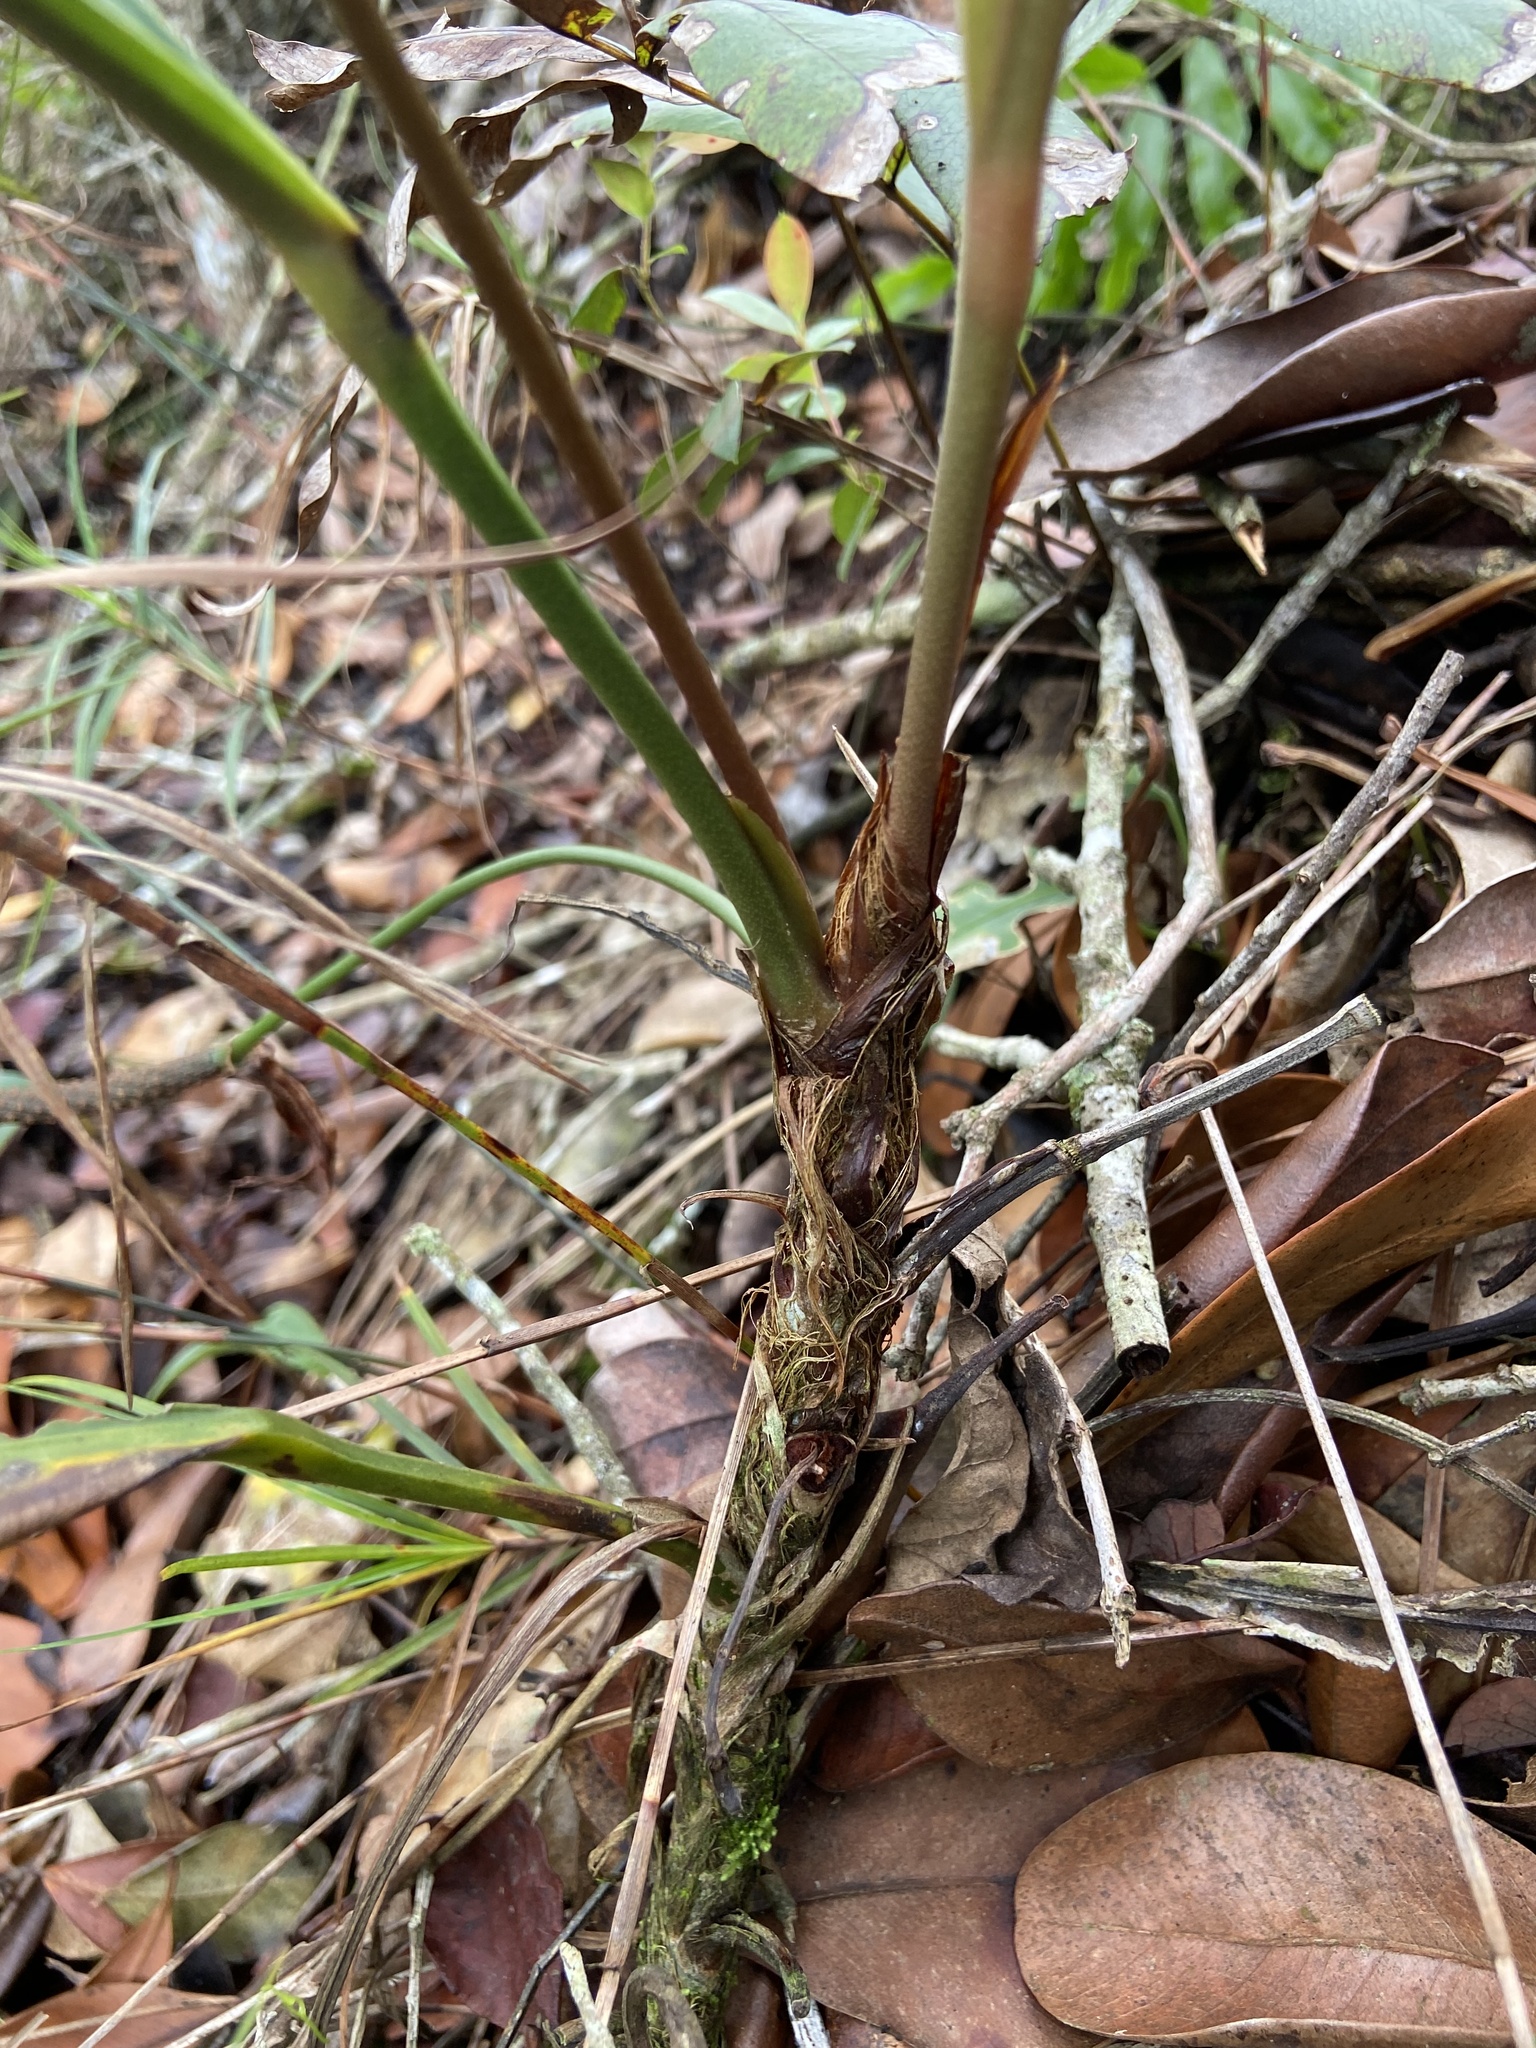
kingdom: Plantae
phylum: Tracheophyta
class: Liliopsida
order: Alismatales
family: Araceae
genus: Anthurium
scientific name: Anthurium intermedium
